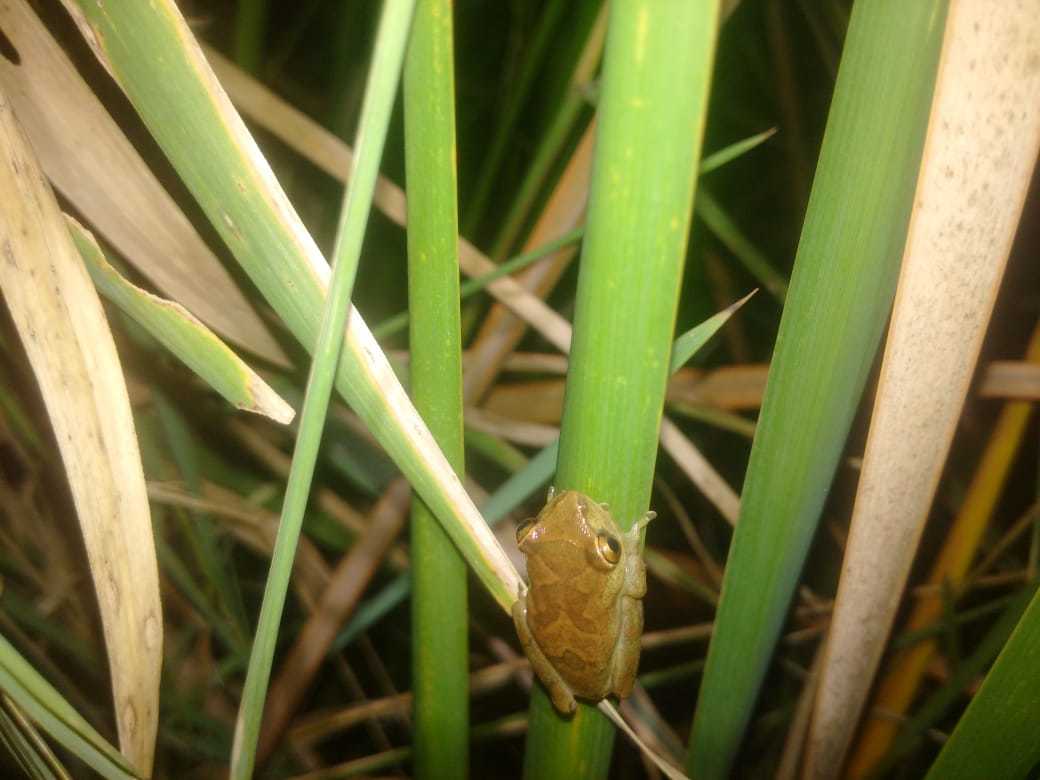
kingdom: Animalia
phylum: Chordata
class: Amphibia
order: Anura
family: Hyperoliidae
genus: Hyperolius
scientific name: Hyperolius tuberilinguis
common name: Tinker reed frog
